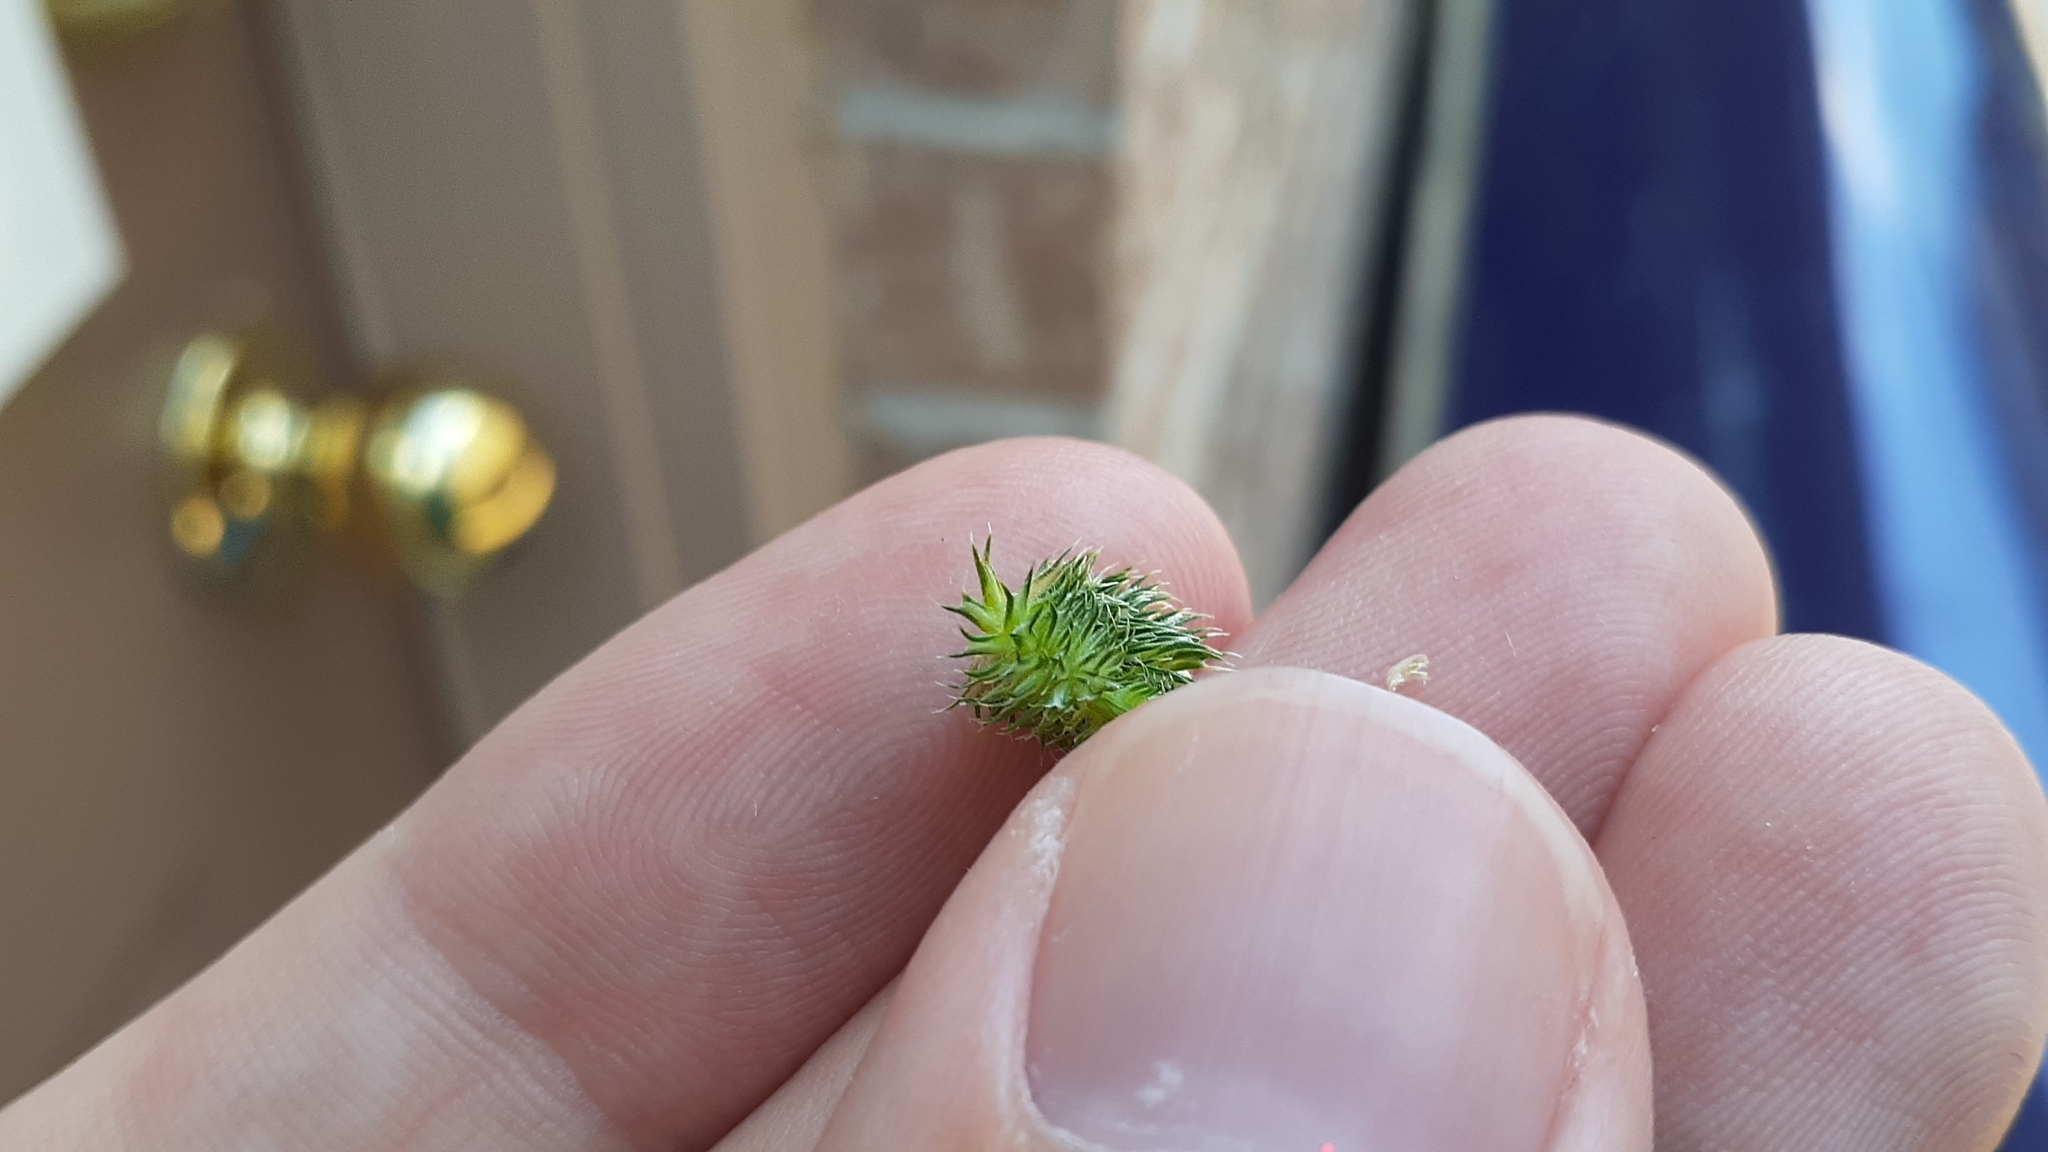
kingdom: Plantae
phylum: Tracheophyta
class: Liliopsida
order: Poales
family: Poaceae
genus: Phleum
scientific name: Phleum pratense
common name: Timothy grass
